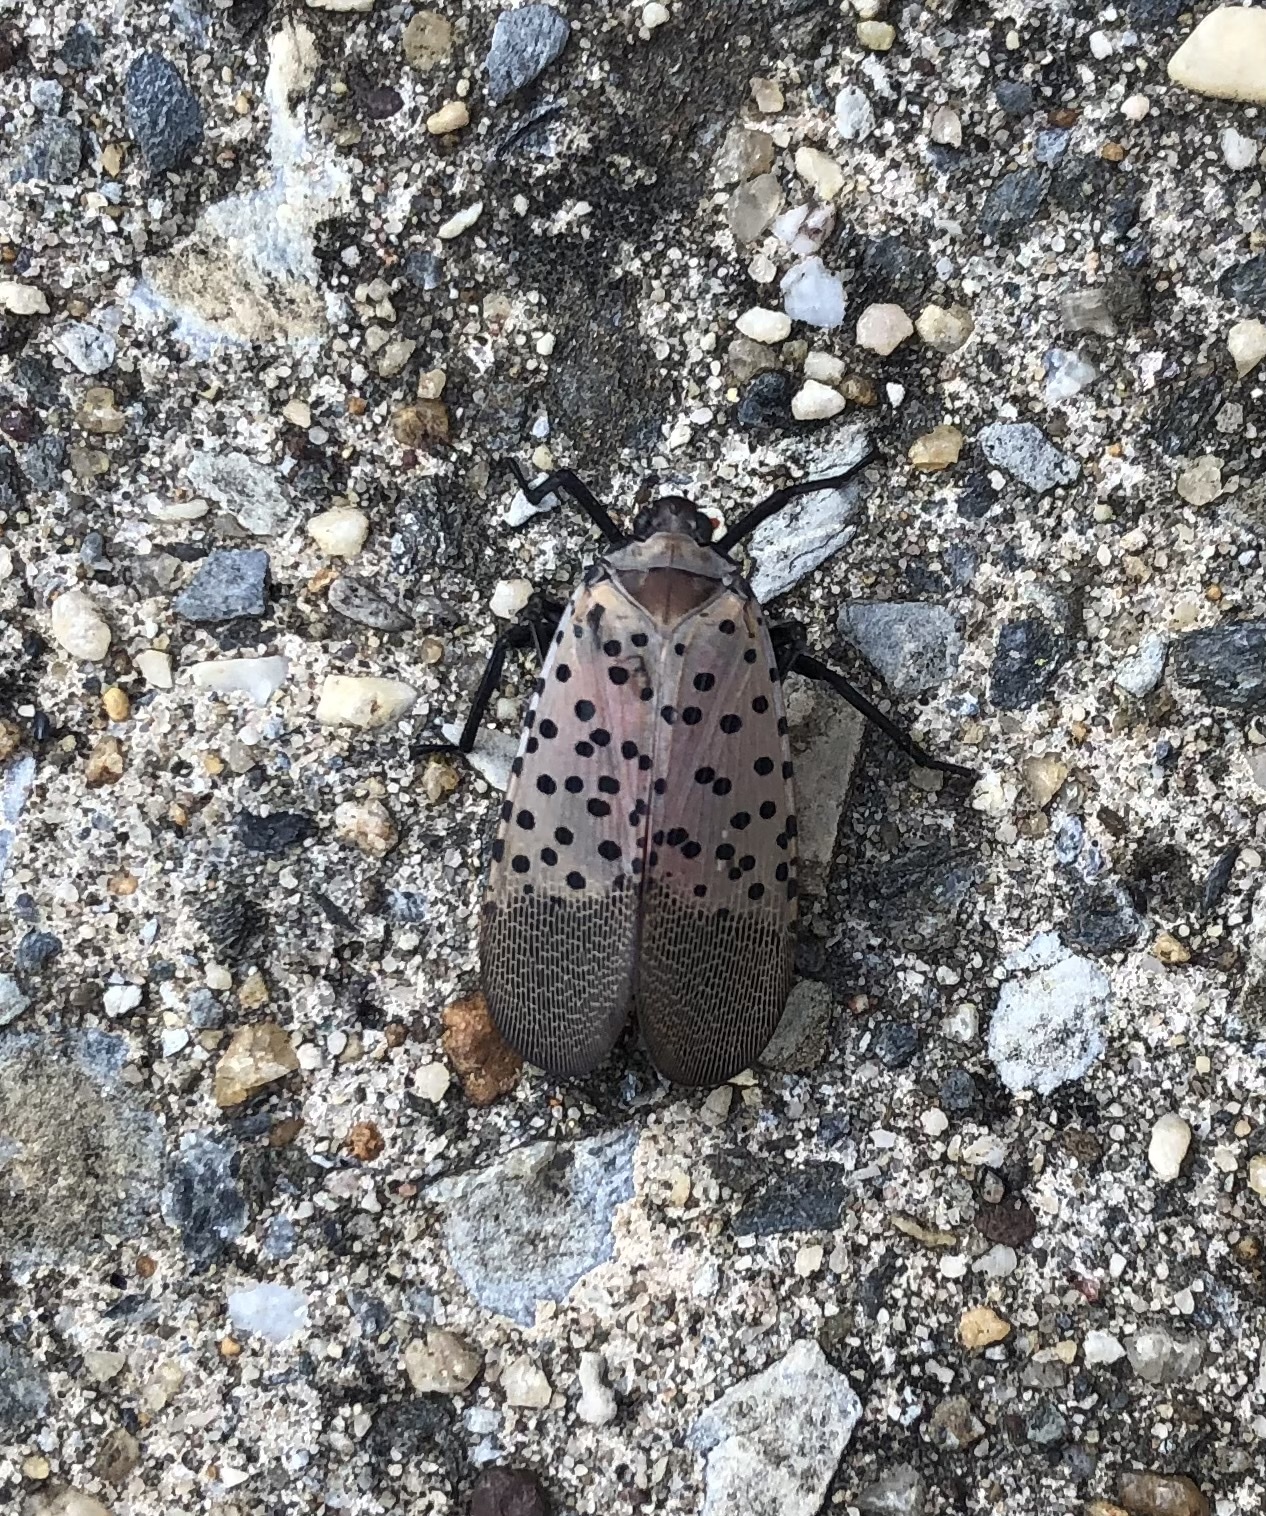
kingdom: Animalia
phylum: Arthropoda
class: Insecta
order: Hemiptera
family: Fulgoridae
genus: Lycorma
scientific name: Lycorma delicatula
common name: Spotted lanternfly
